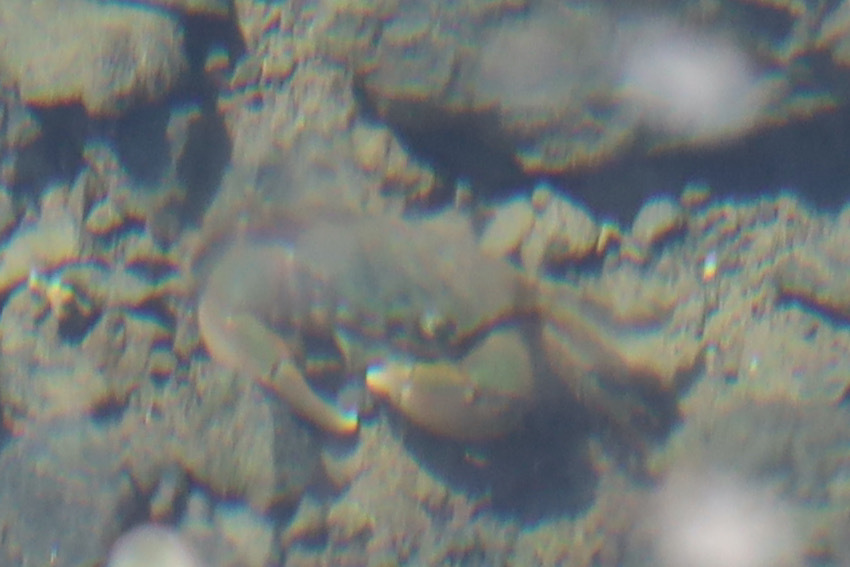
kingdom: Animalia
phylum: Arthropoda
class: Malacostraca
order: Decapoda
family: Varunidae
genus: Hemigrapsus
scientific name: Hemigrapsus oregonensis
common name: Yellow shore crab
